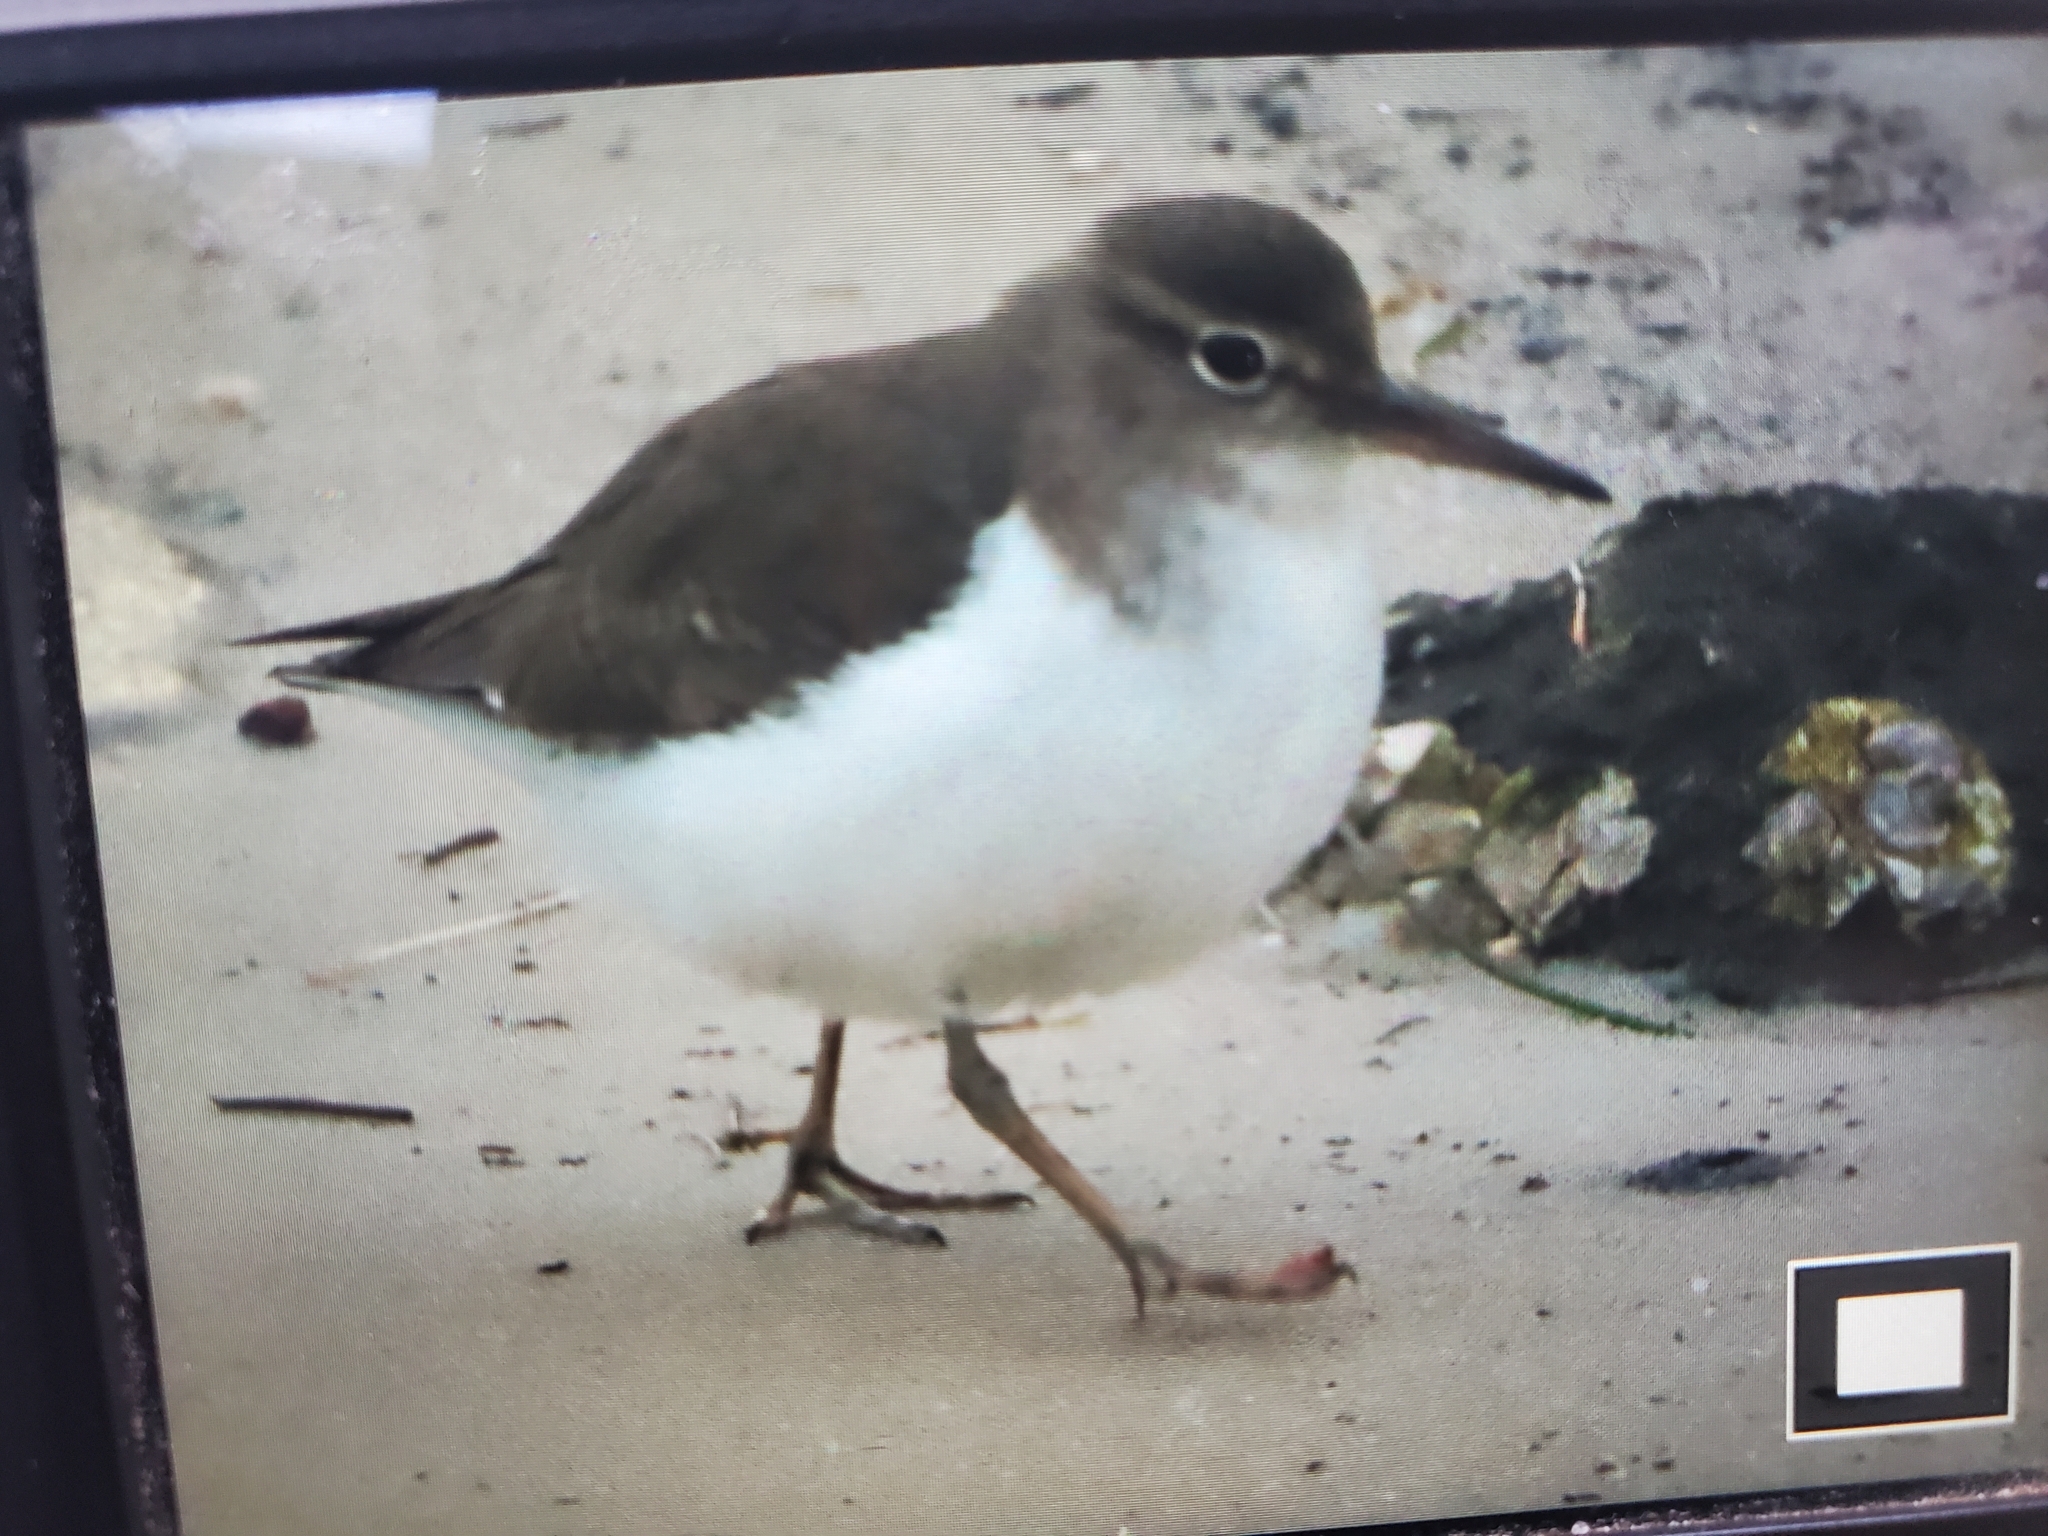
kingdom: Animalia
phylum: Chordata
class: Aves
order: Charadriiformes
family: Scolopacidae
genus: Actitis
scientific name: Actitis macularius
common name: Spotted sandpiper
